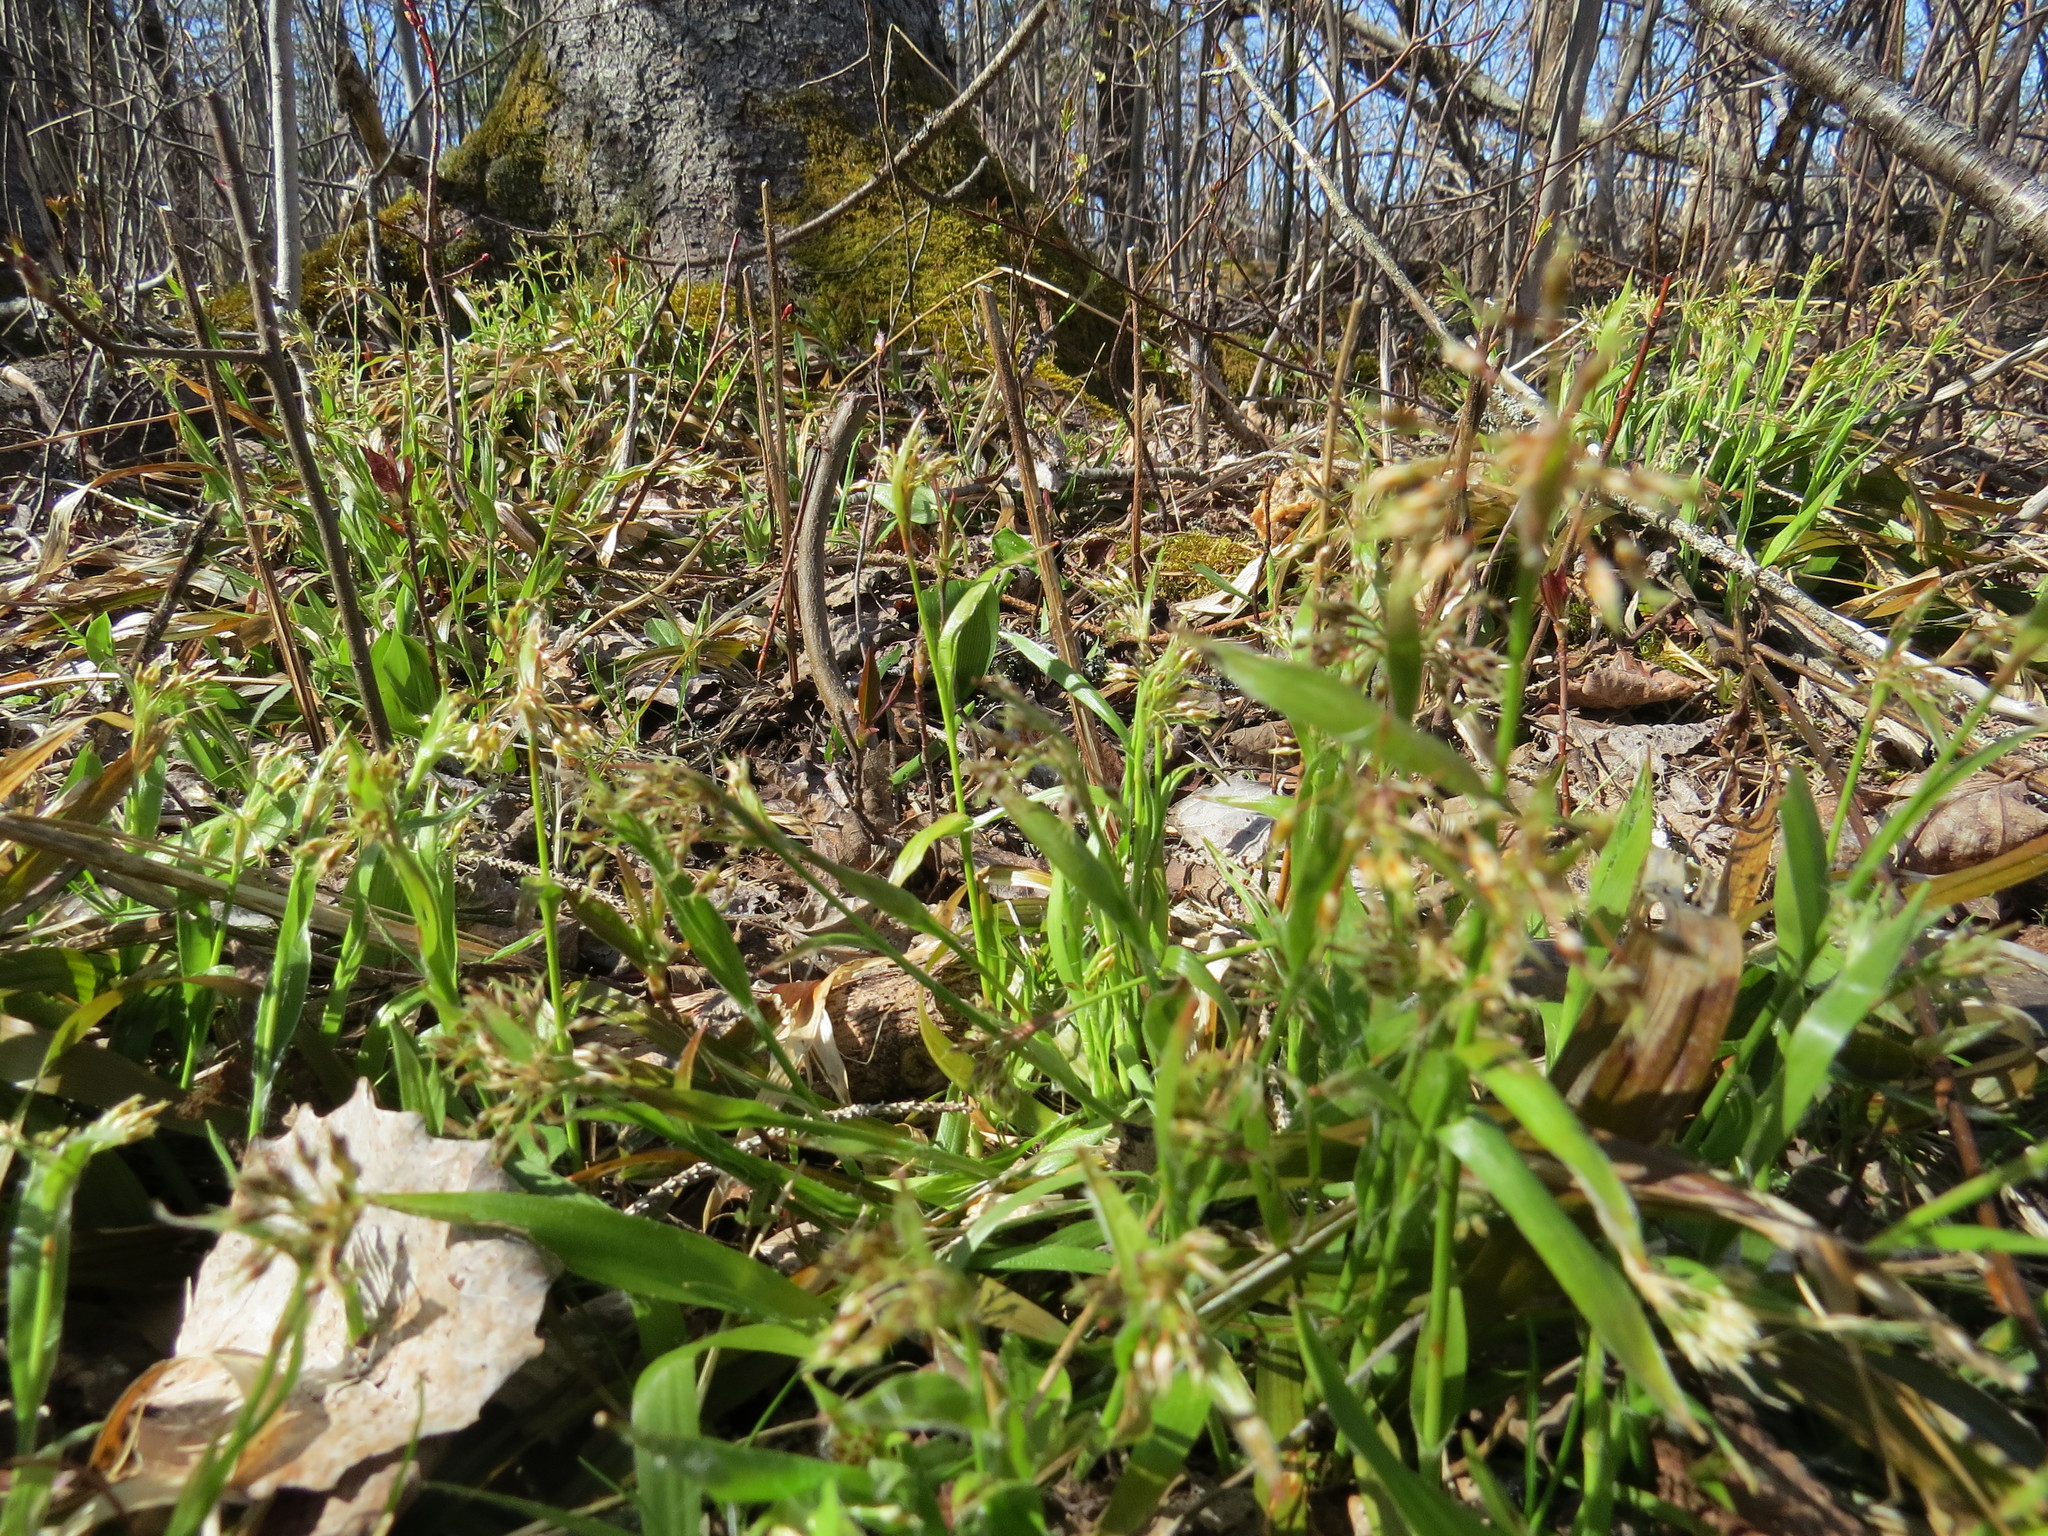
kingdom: Plantae
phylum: Tracheophyta
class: Liliopsida
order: Poales
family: Juncaceae
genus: Luzula
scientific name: Luzula acuminata
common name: Hairy woodrush
